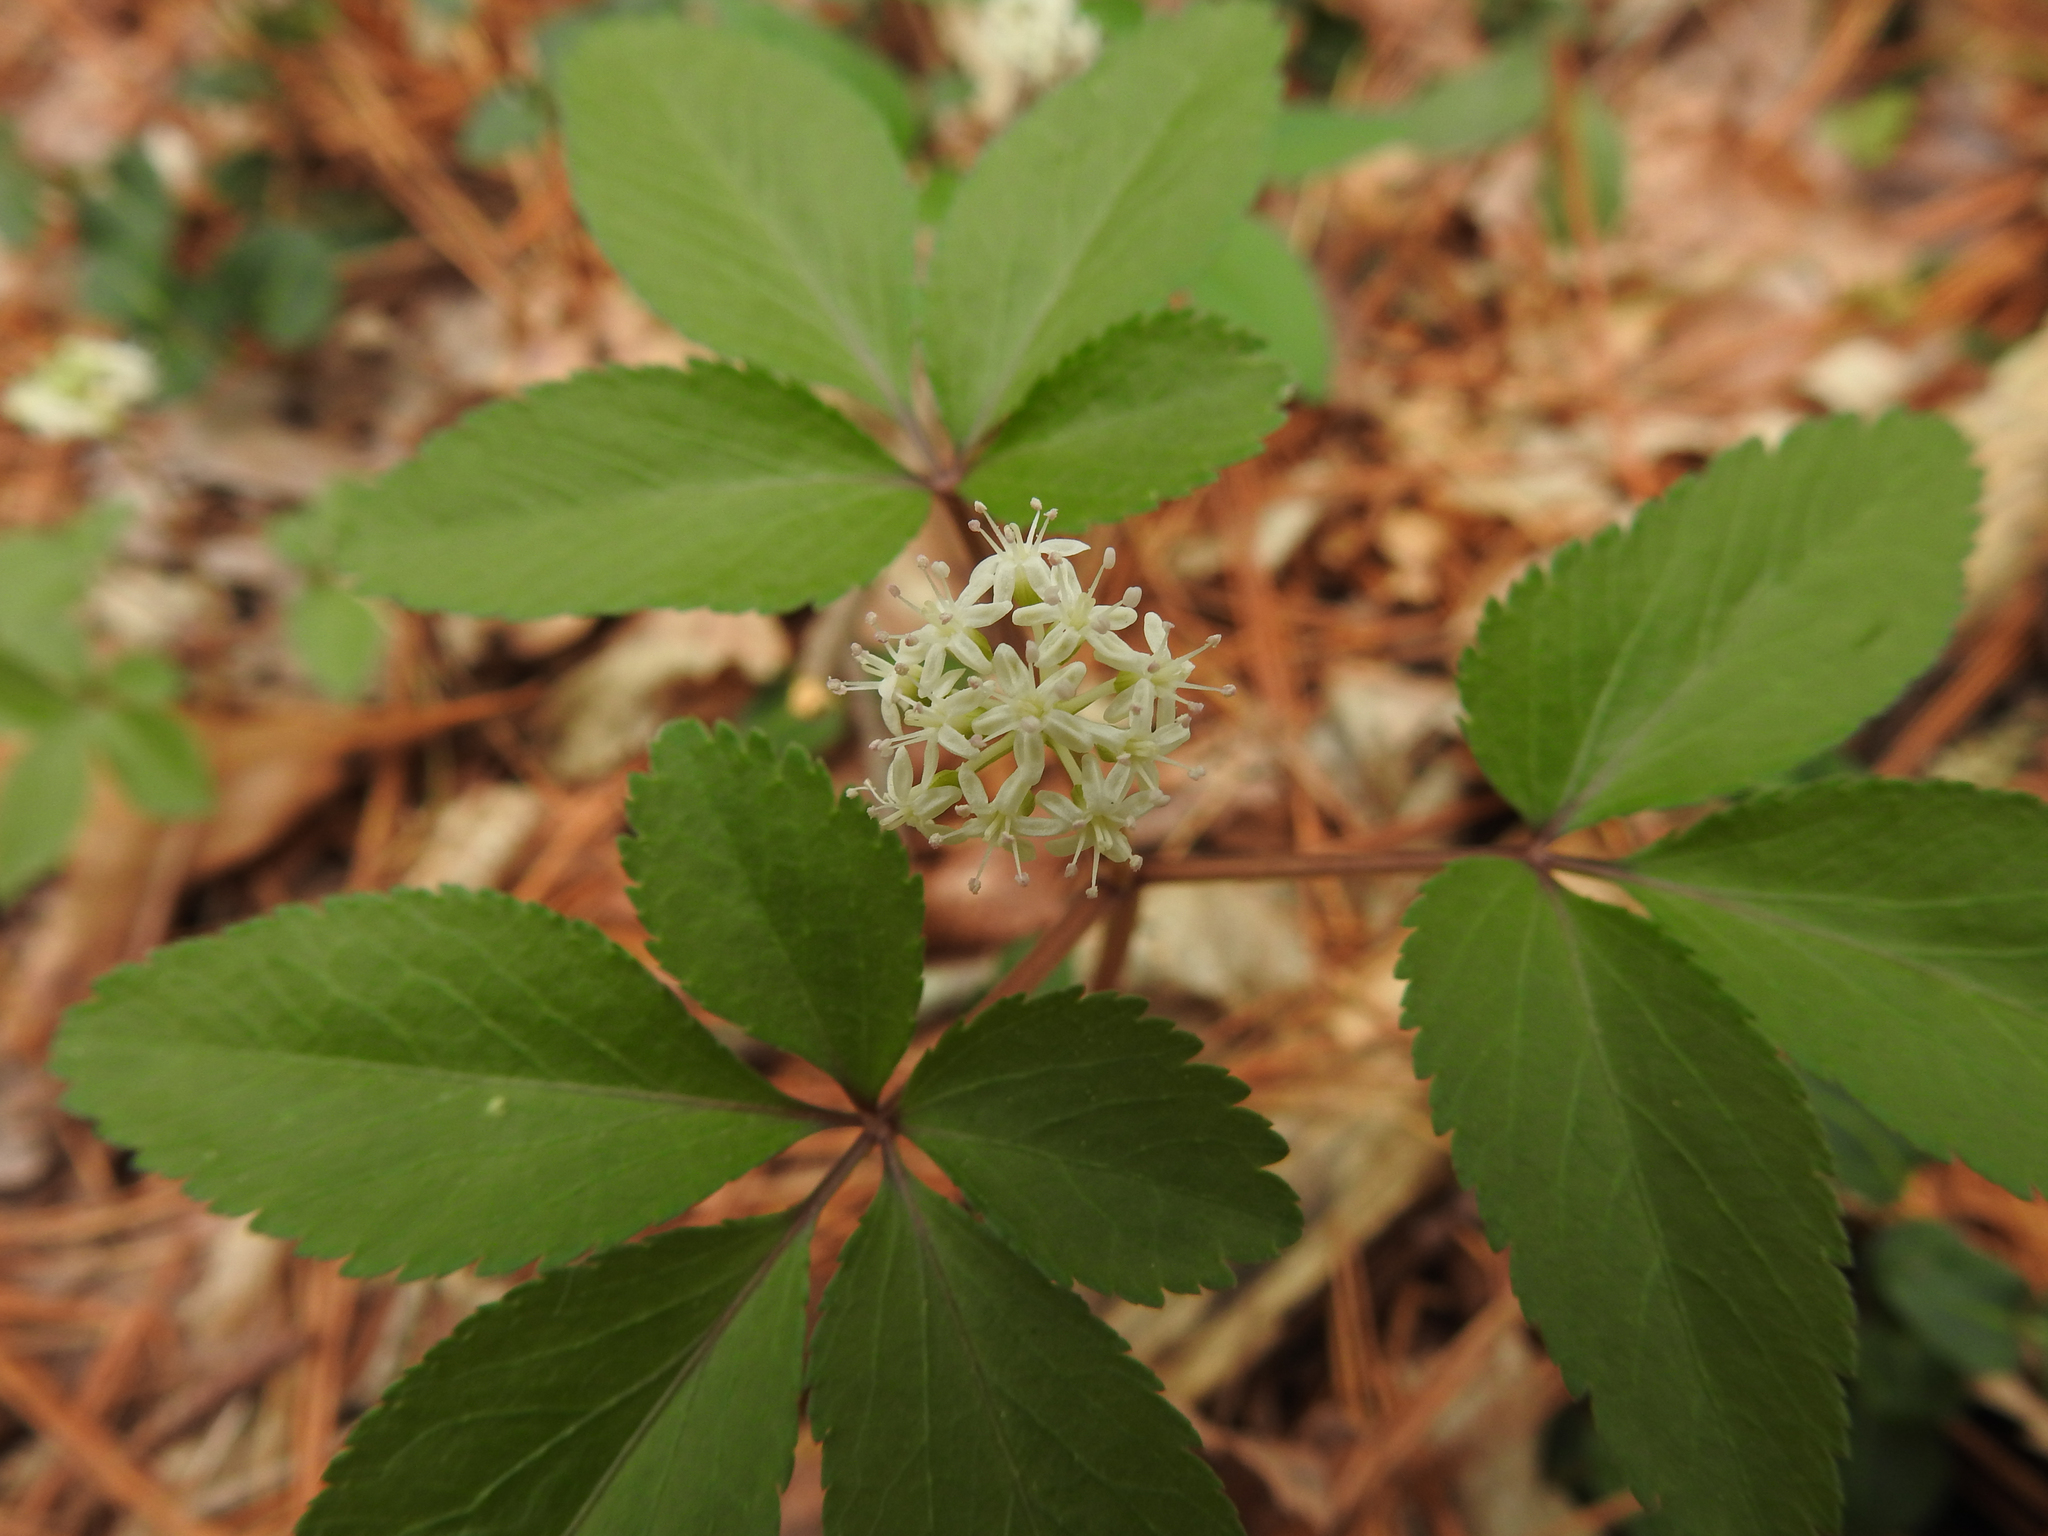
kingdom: Plantae
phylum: Tracheophyta
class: Magnoliopsida
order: Apiales
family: Araliaceae
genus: Panax
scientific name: Panax trifolius
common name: Dwarf ginseng
